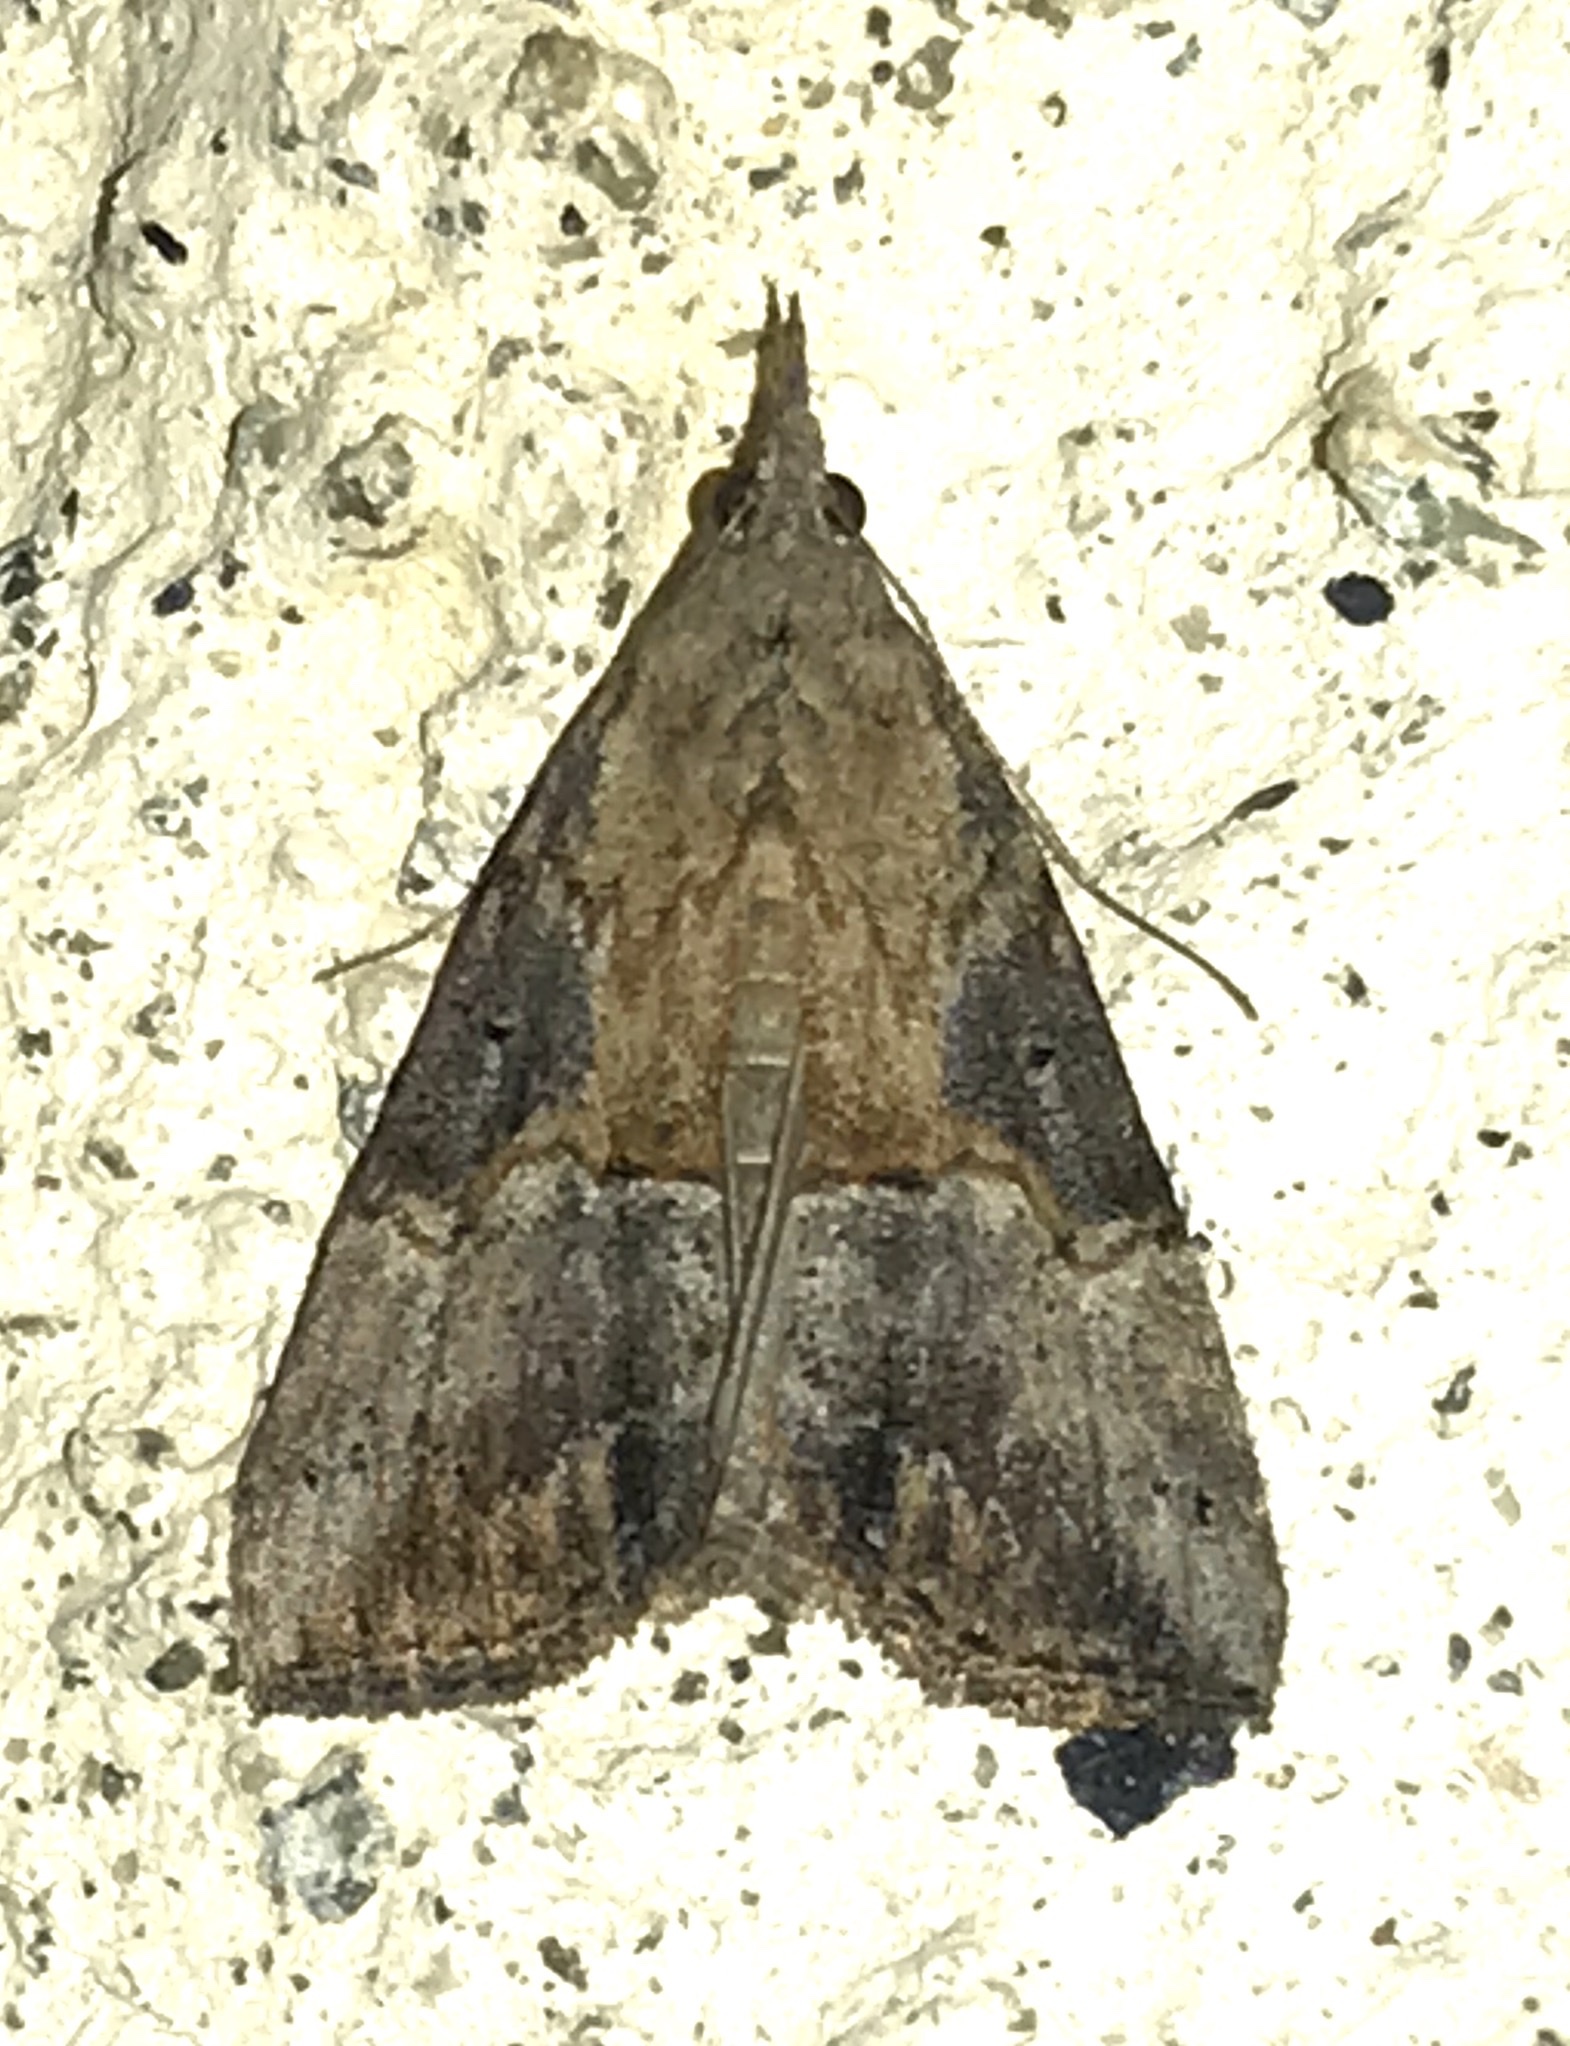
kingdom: Animalia
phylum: Arthropoda
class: Insecta
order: Lepidoptera
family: Erebidae
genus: Hypena
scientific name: Hypena scabra
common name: Green cloverworm
